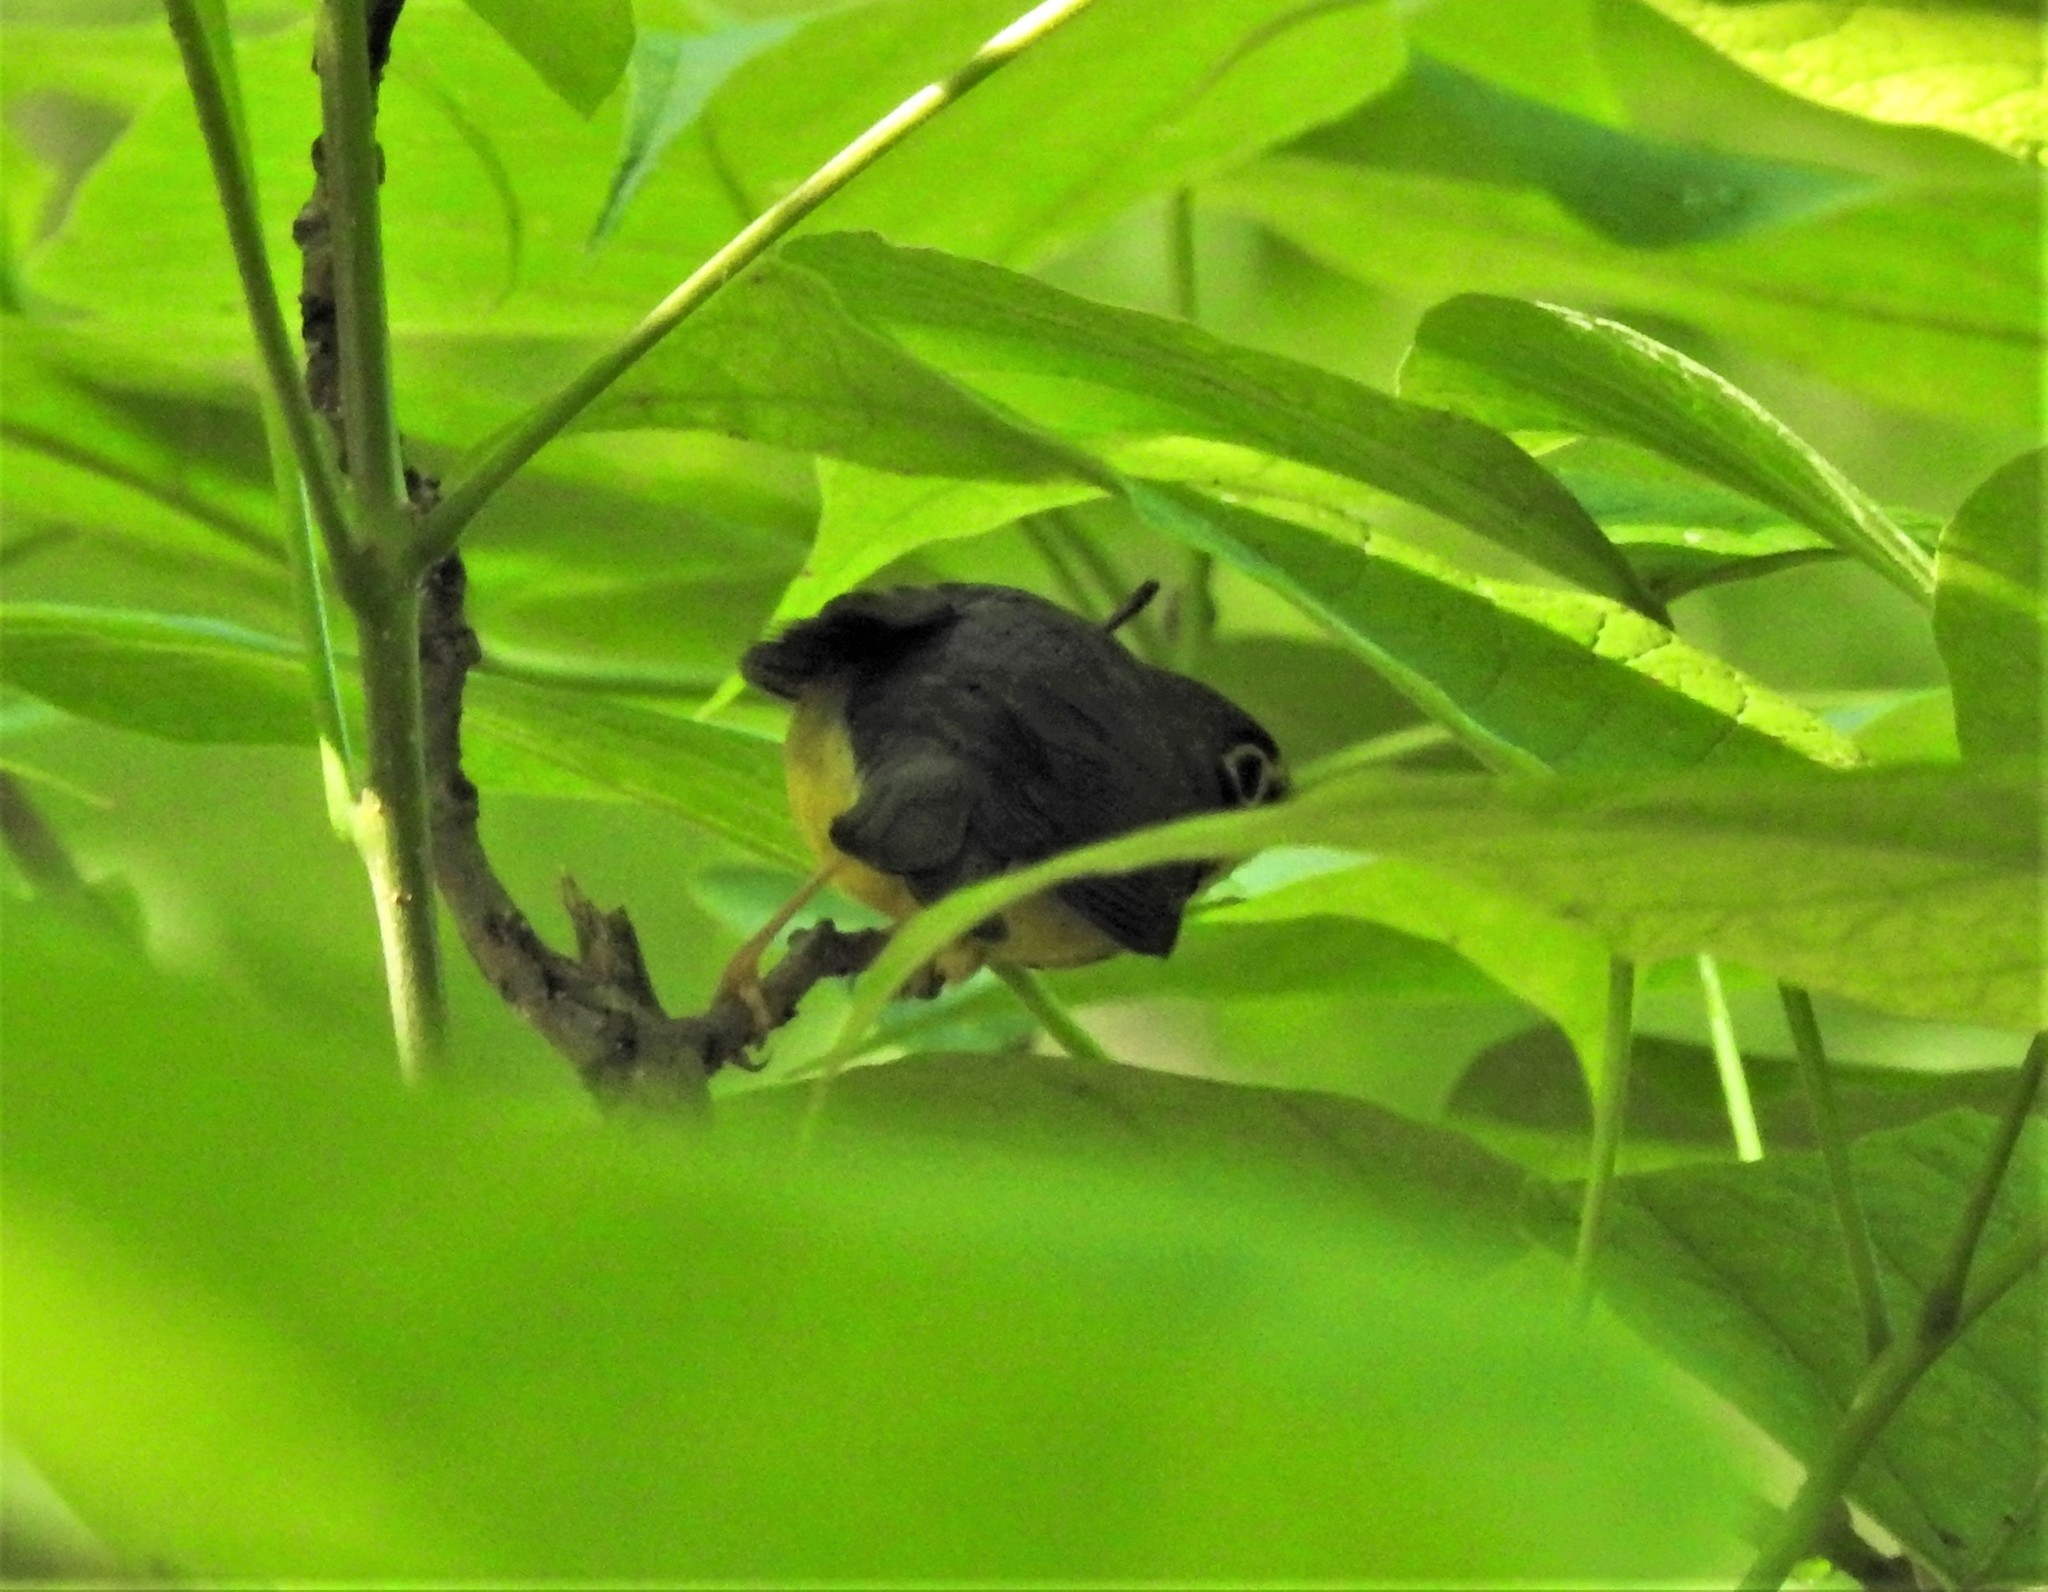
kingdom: Animalia
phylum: Chordata
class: Aves
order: Passeriformes
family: Parulidae
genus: Cardellina
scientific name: Cardellina canadensis
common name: Canada warbler
